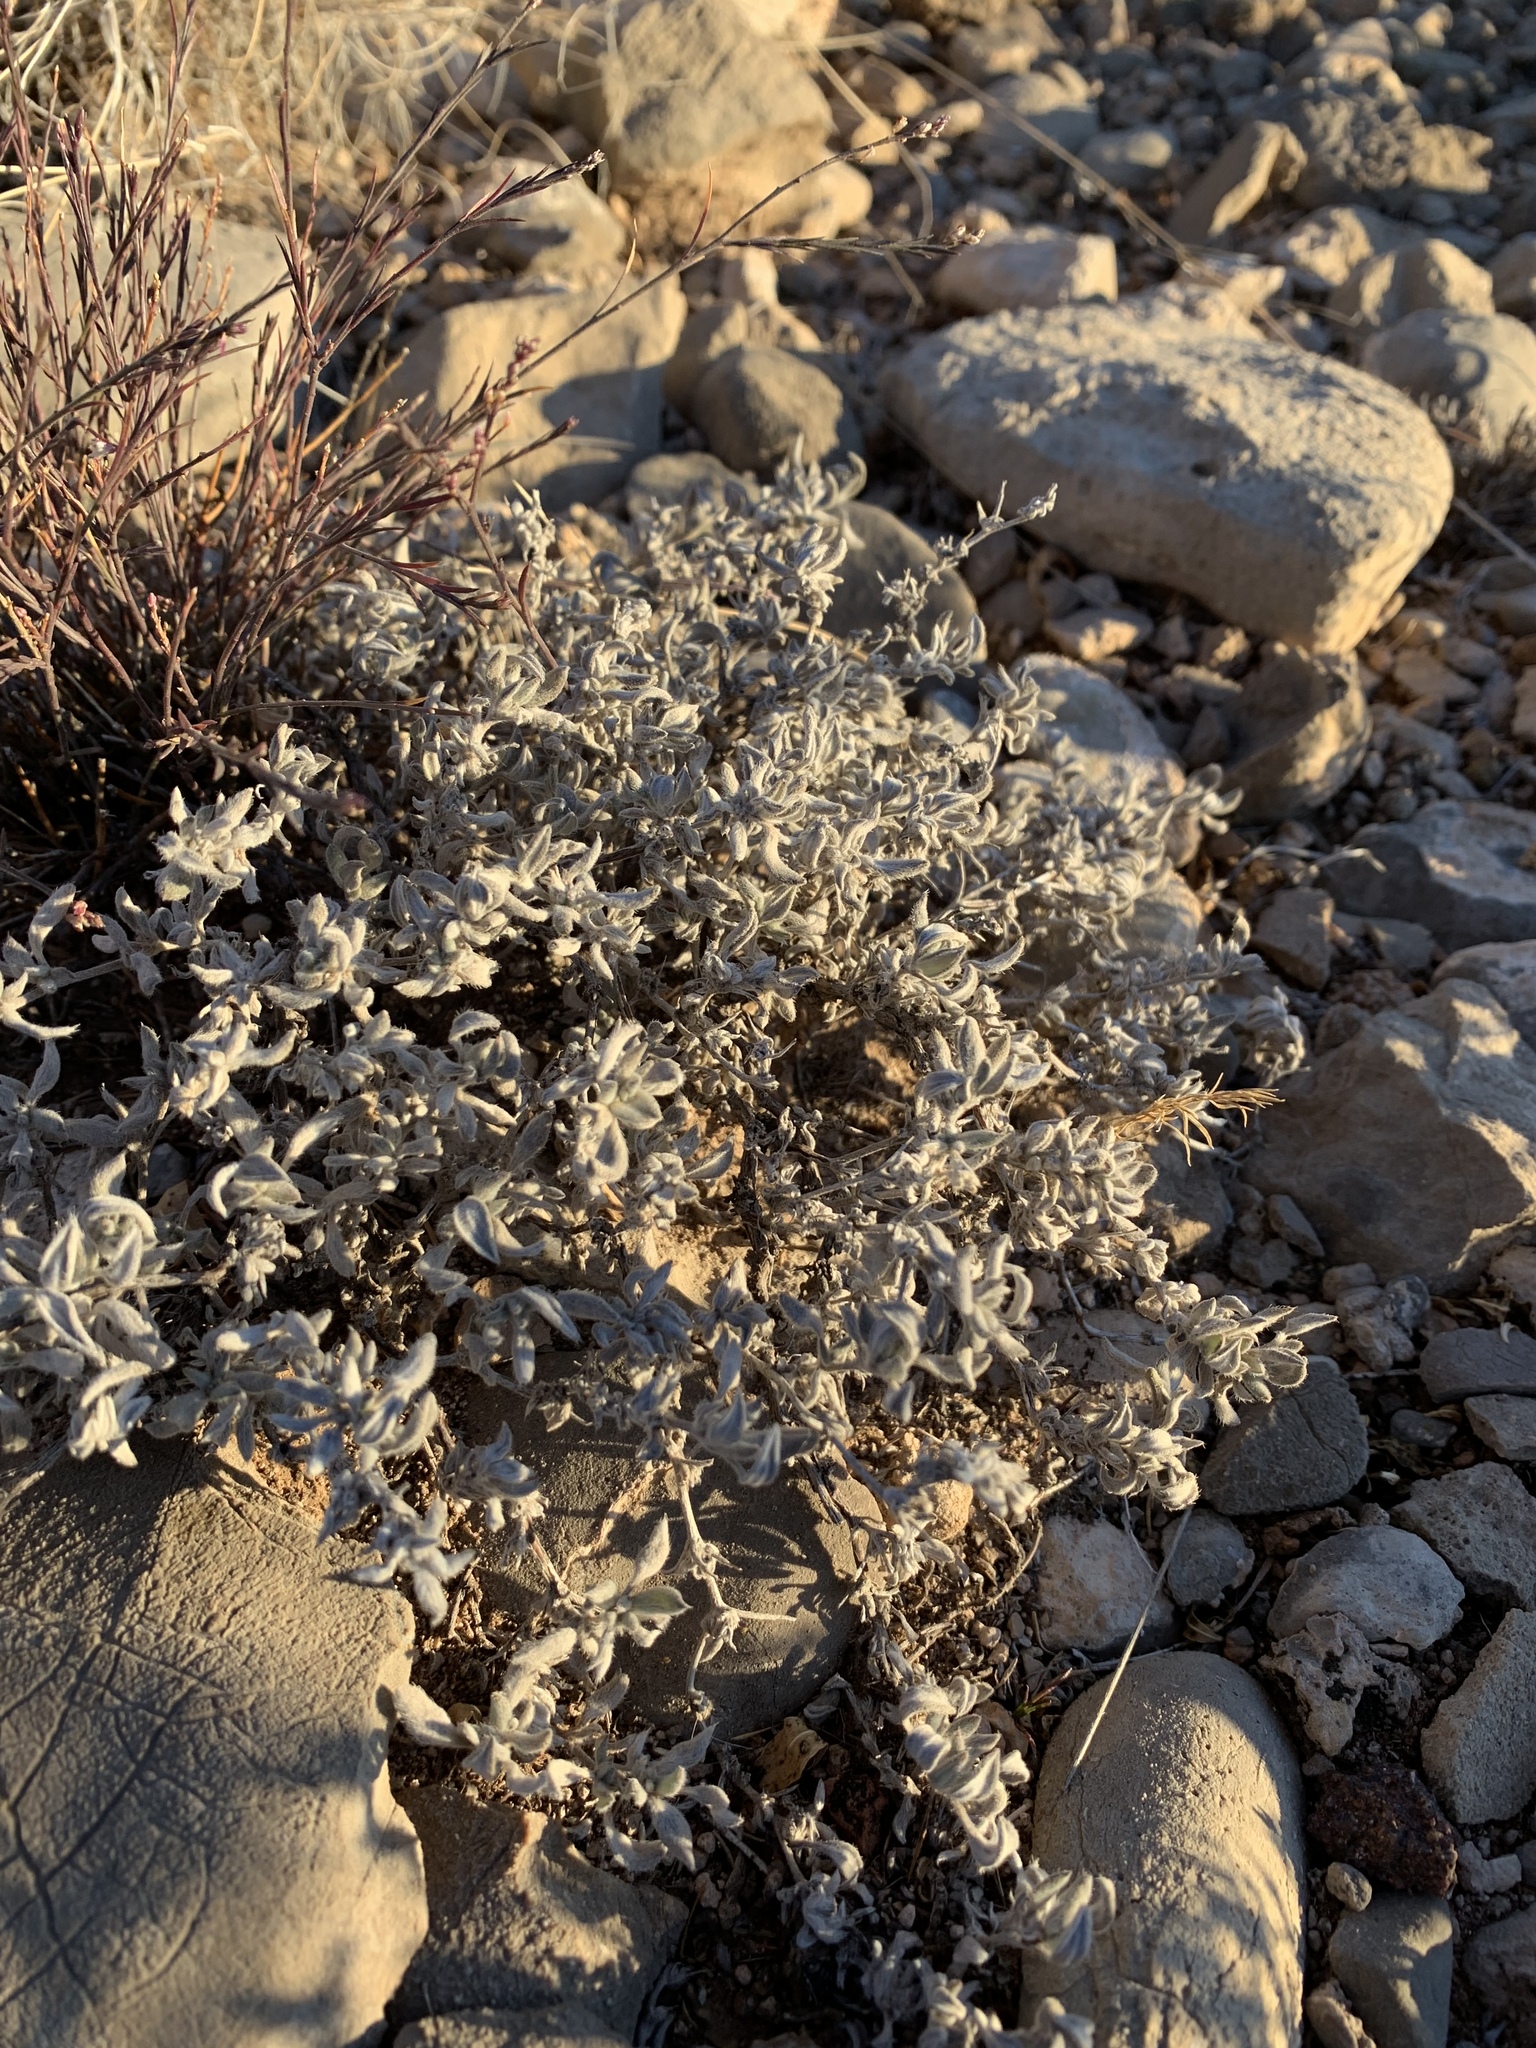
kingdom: Plantae
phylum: Tracheophyta
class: Magnoliopsida
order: Boraginales
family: Ehretiaceae
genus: Tiquilia
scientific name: Tiquilia canescens
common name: Hairy tiquilia
